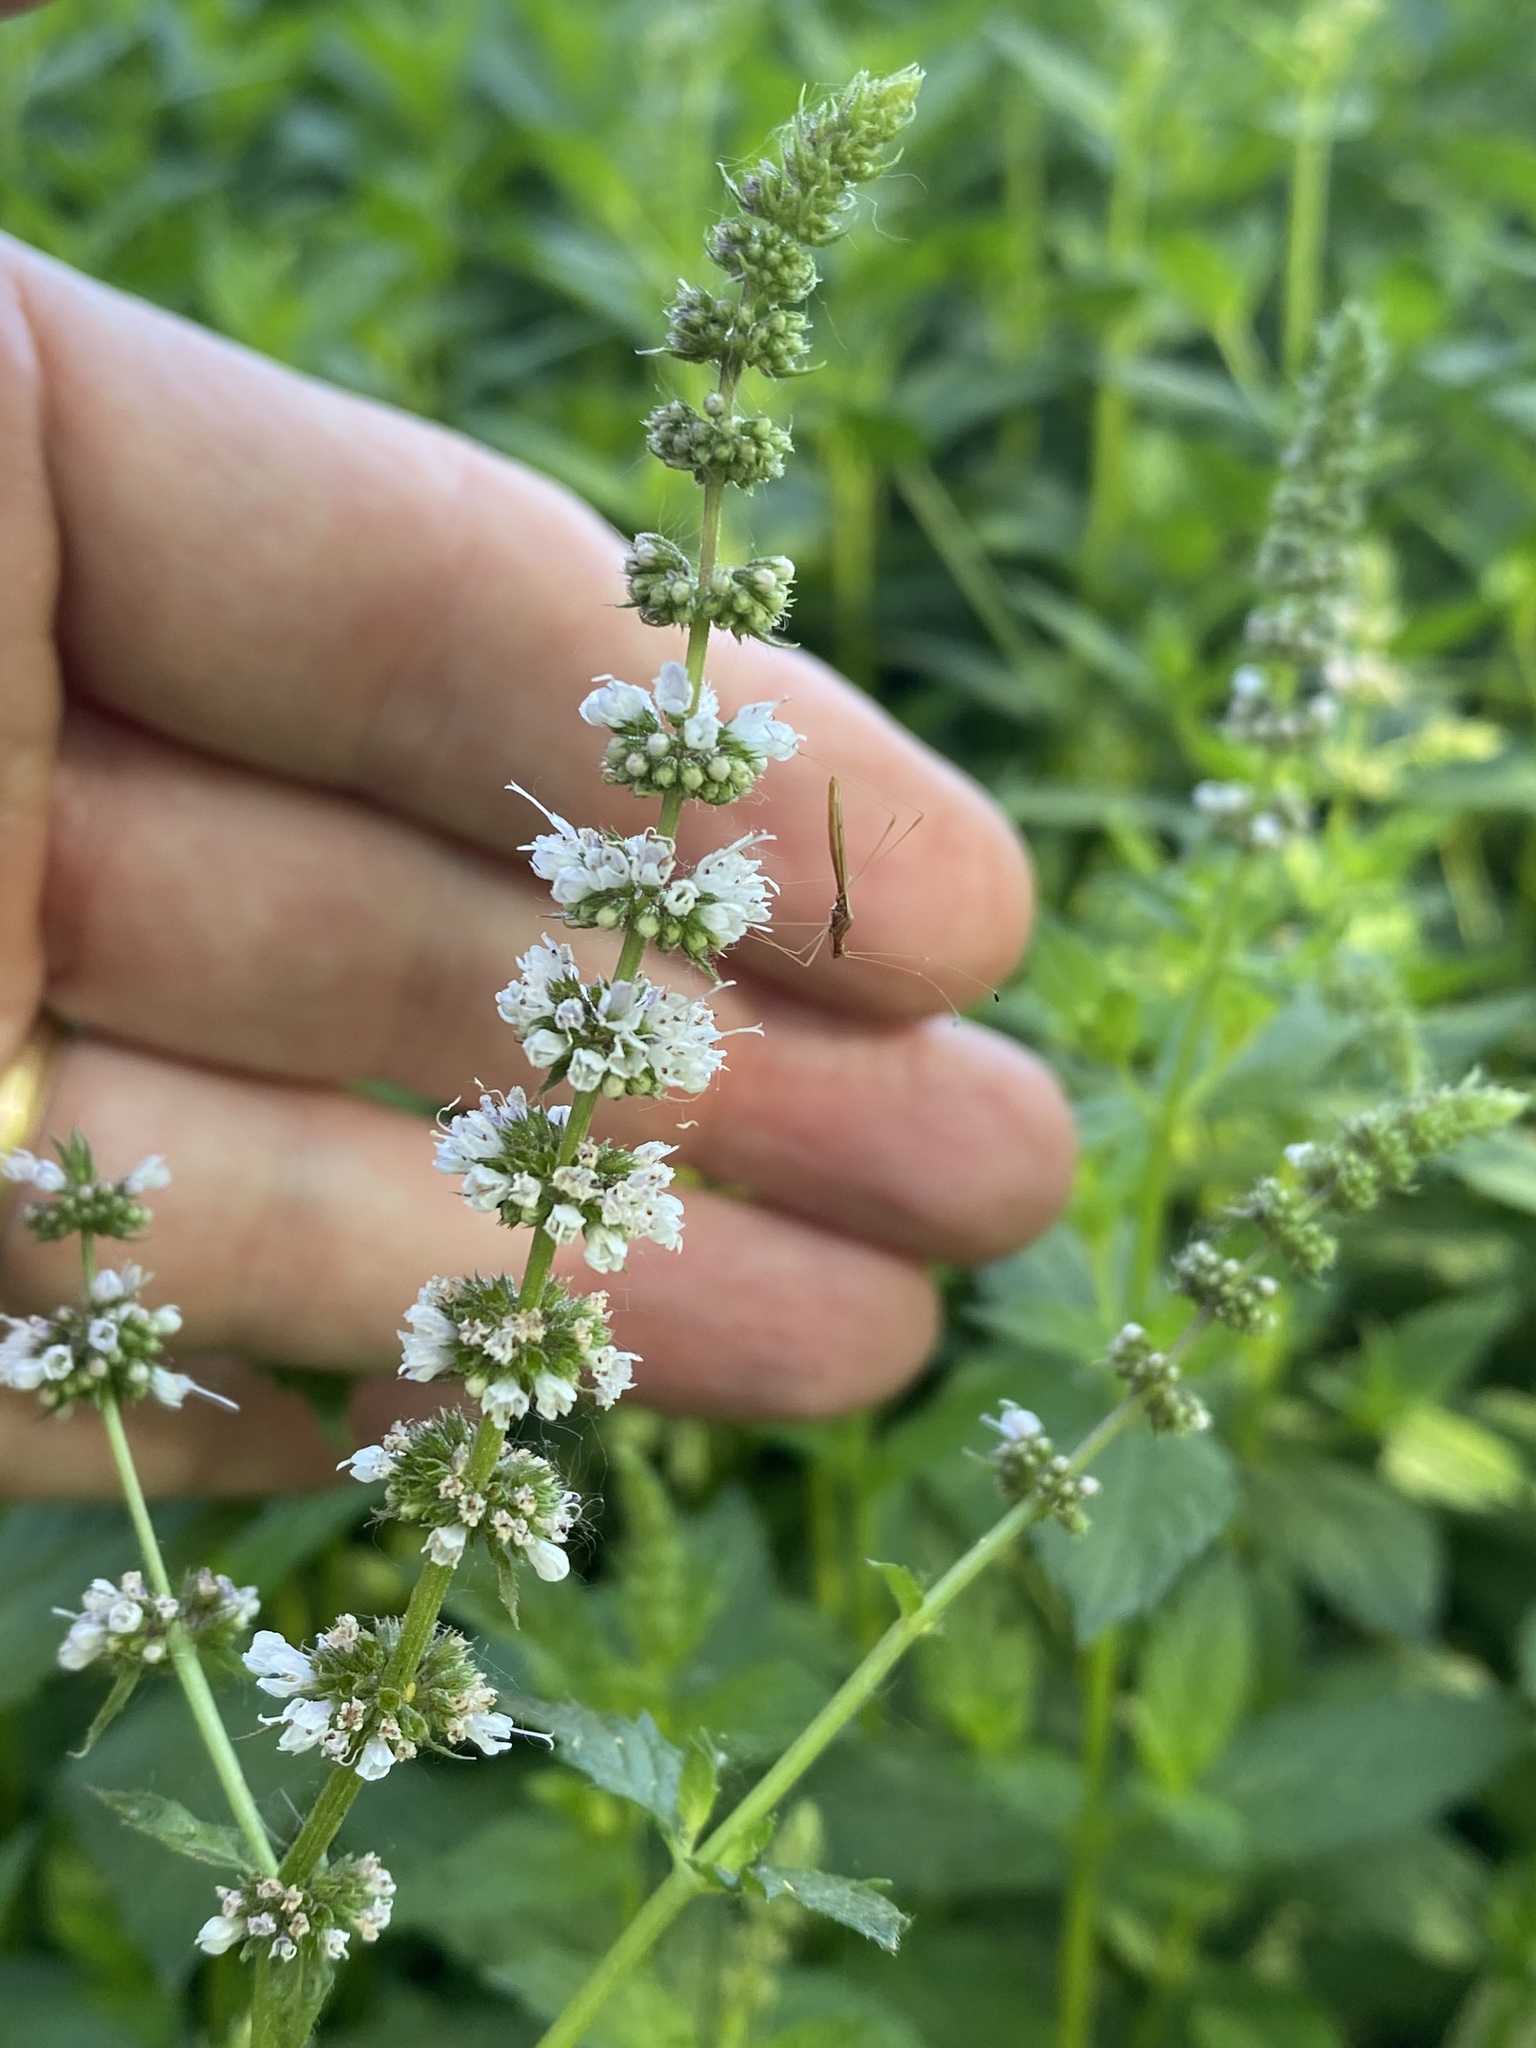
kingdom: Plantae
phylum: Tracheophyta
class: Magnoliopsida
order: Lamiales
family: Lamiaceae
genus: Mentha
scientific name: Mentha spicata
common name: Spearmint
